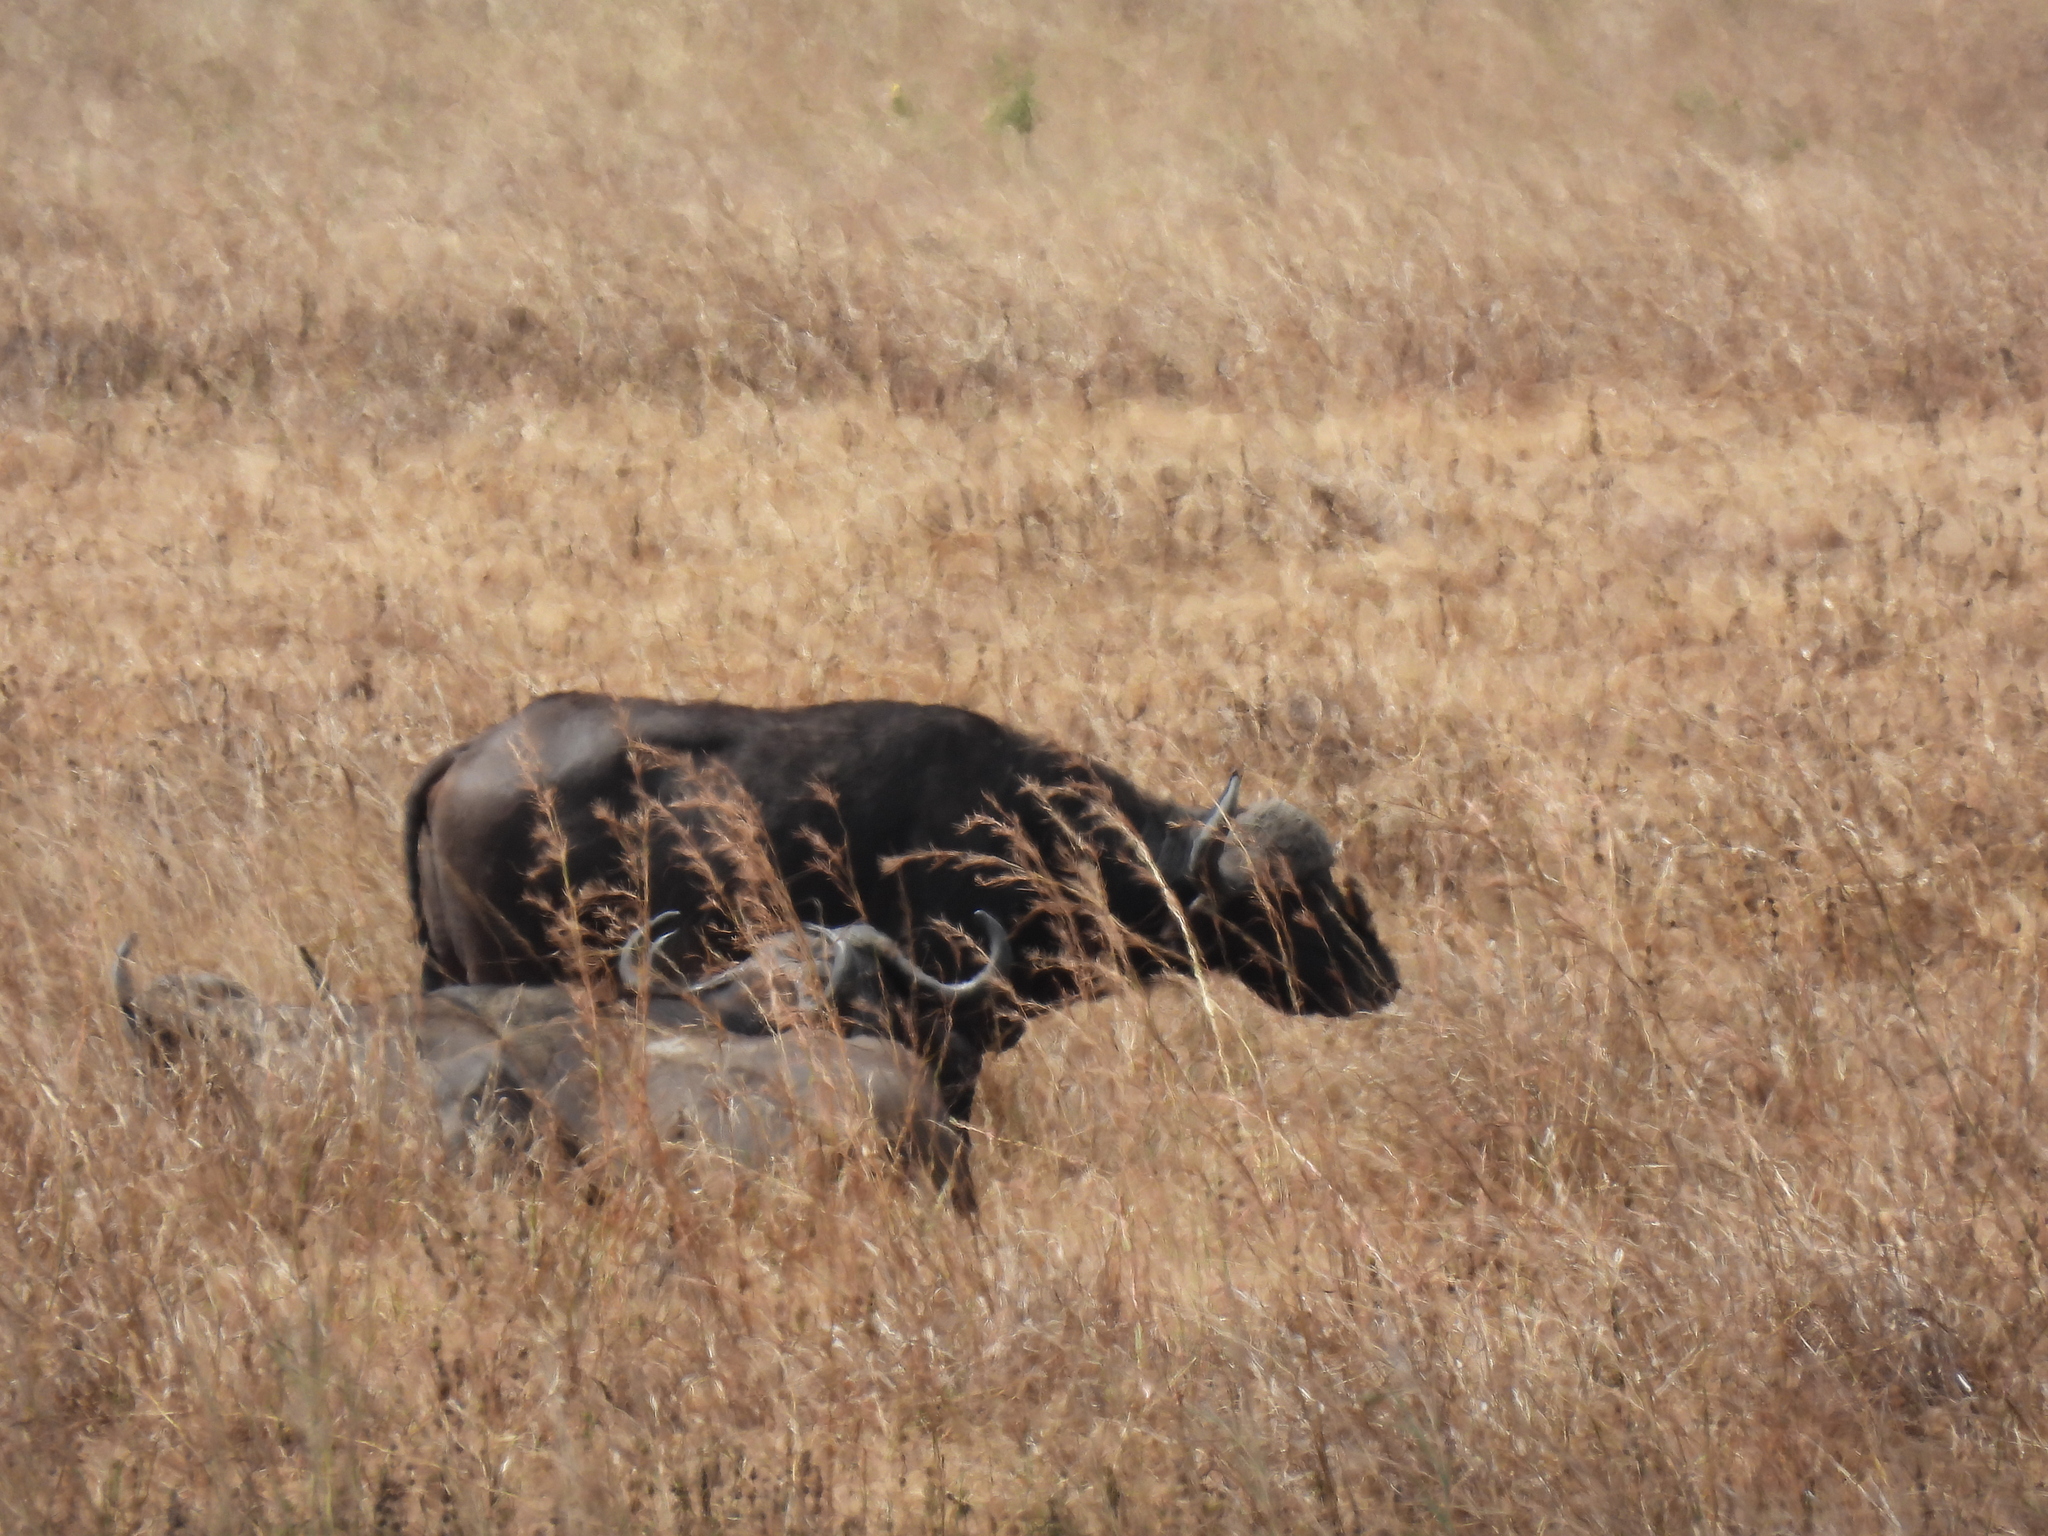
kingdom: Animalia
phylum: Chordata
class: Mammalia
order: Artiodactyla
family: Bovidae
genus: Syncerus
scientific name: Syncerus caffer
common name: African buffalo
